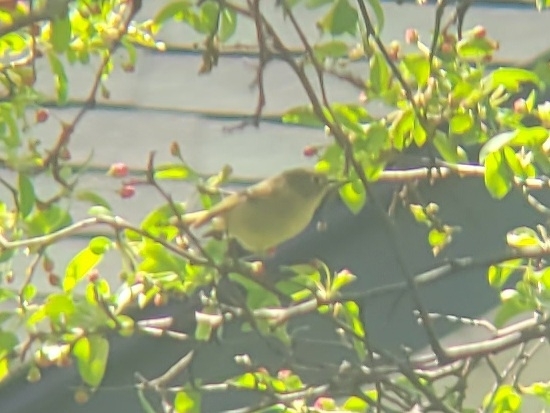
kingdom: Animalia
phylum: Chordata
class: Aves
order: Passeriformes
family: Regulidae
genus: Regulus
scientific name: Regulus calendula
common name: Ruby-crowned kinglet
